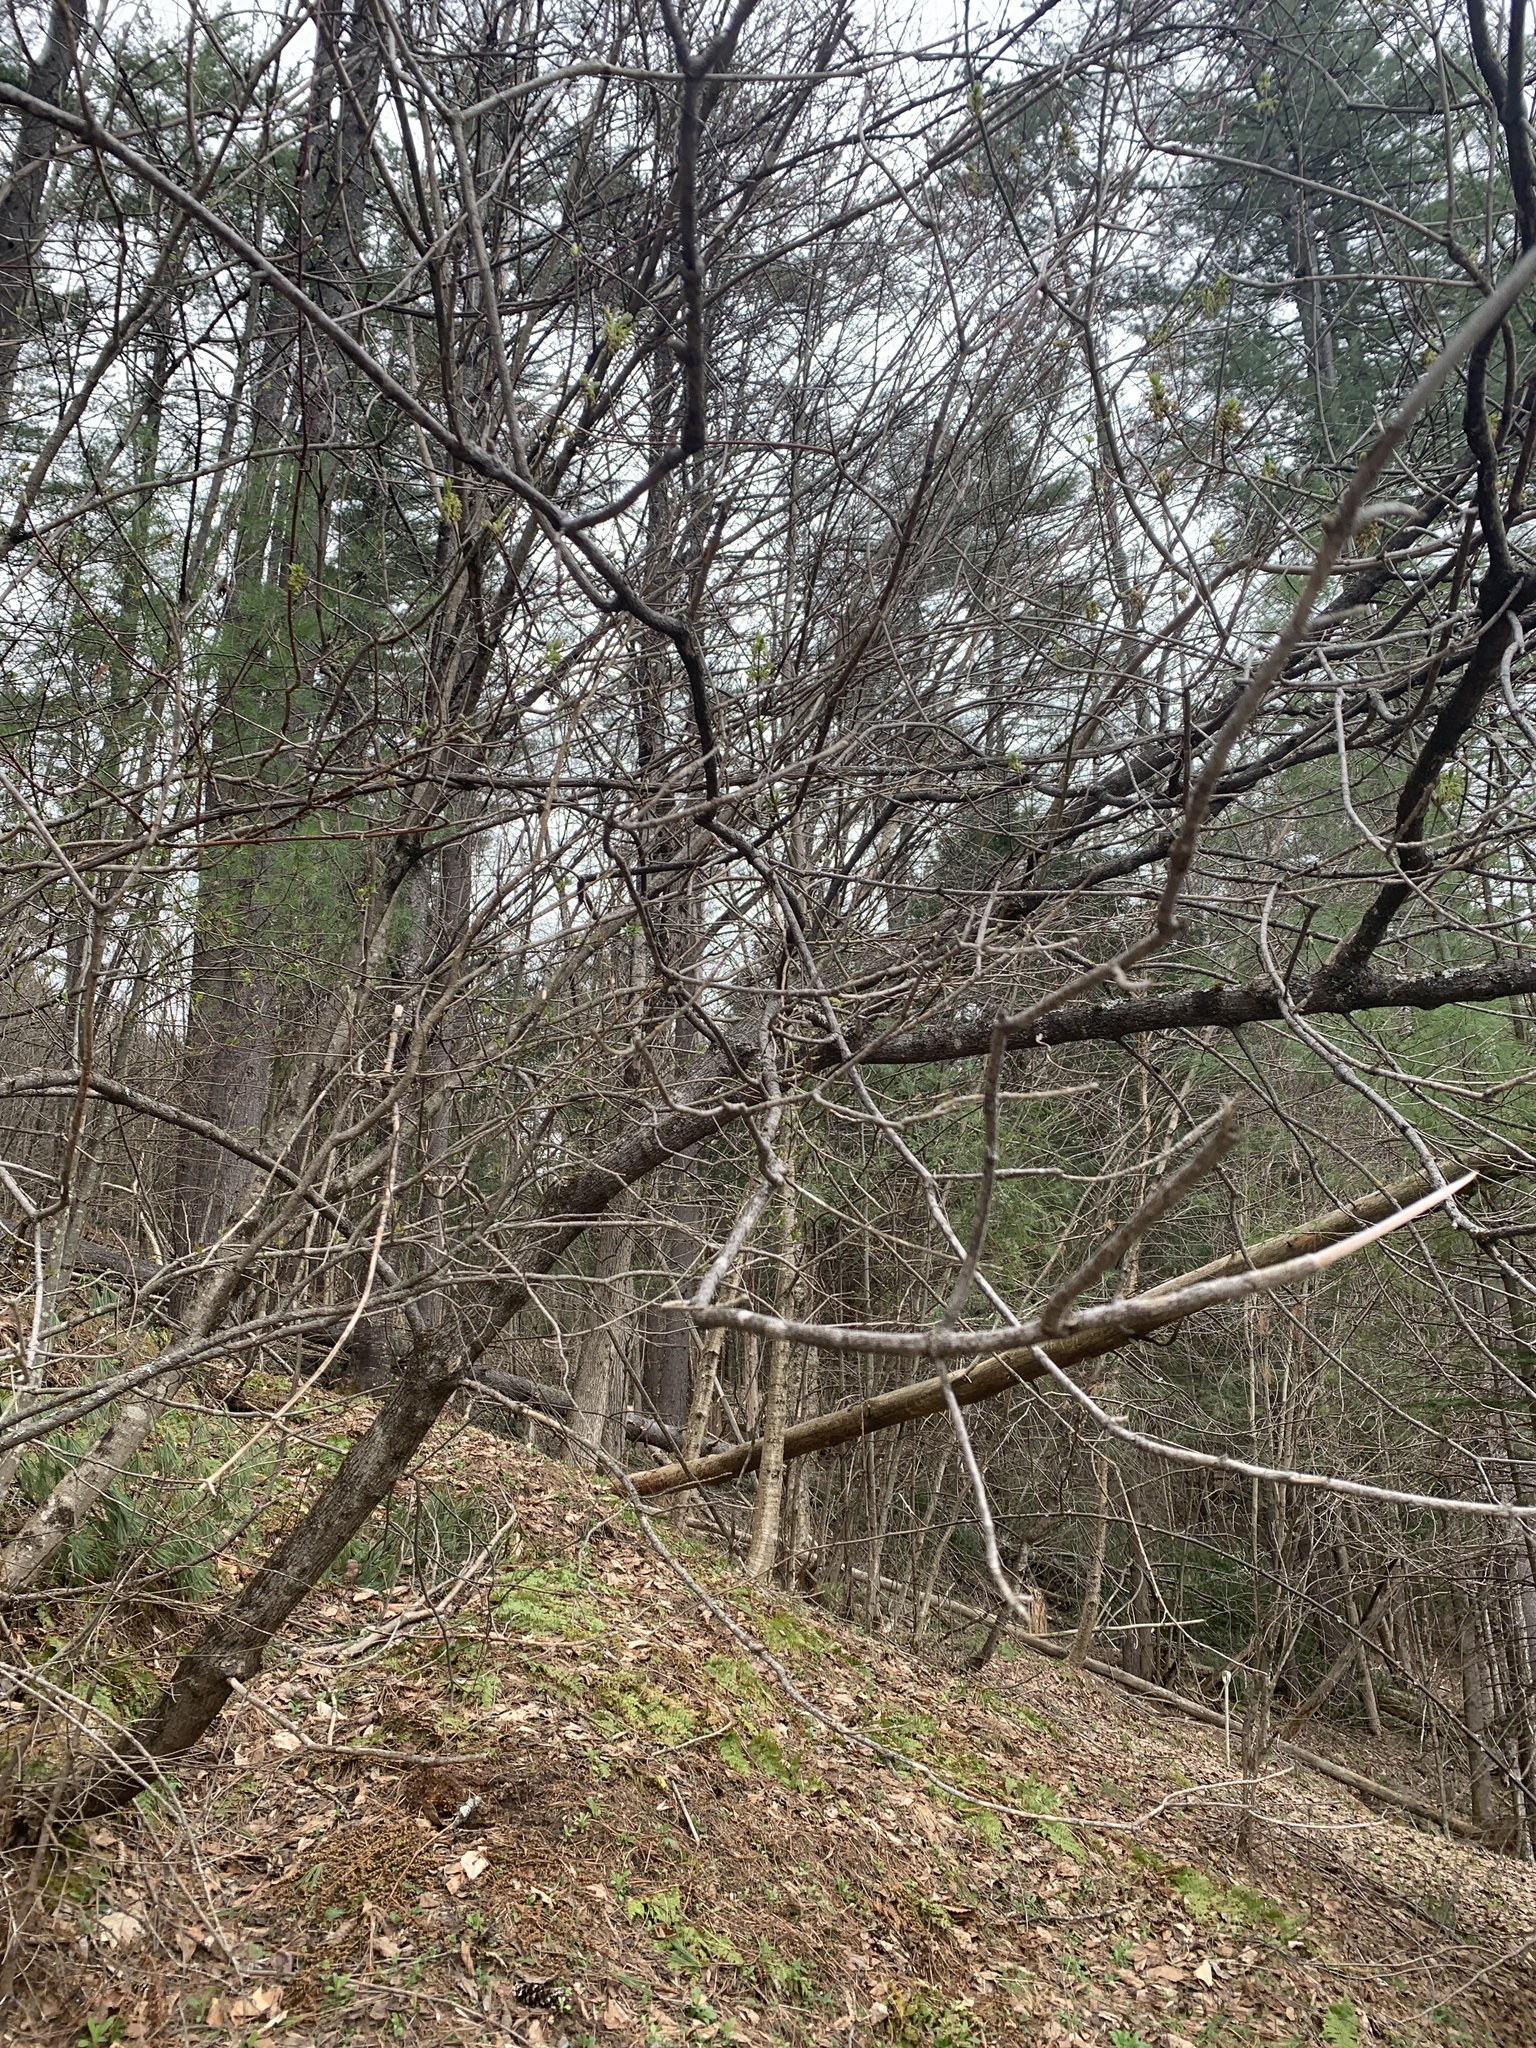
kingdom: Plantae
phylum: Tracheophyta
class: Magnoliopsida
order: Sapindales
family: Sapindaceae
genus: Acer
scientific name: Acer negundo
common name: Ashleaf maple
